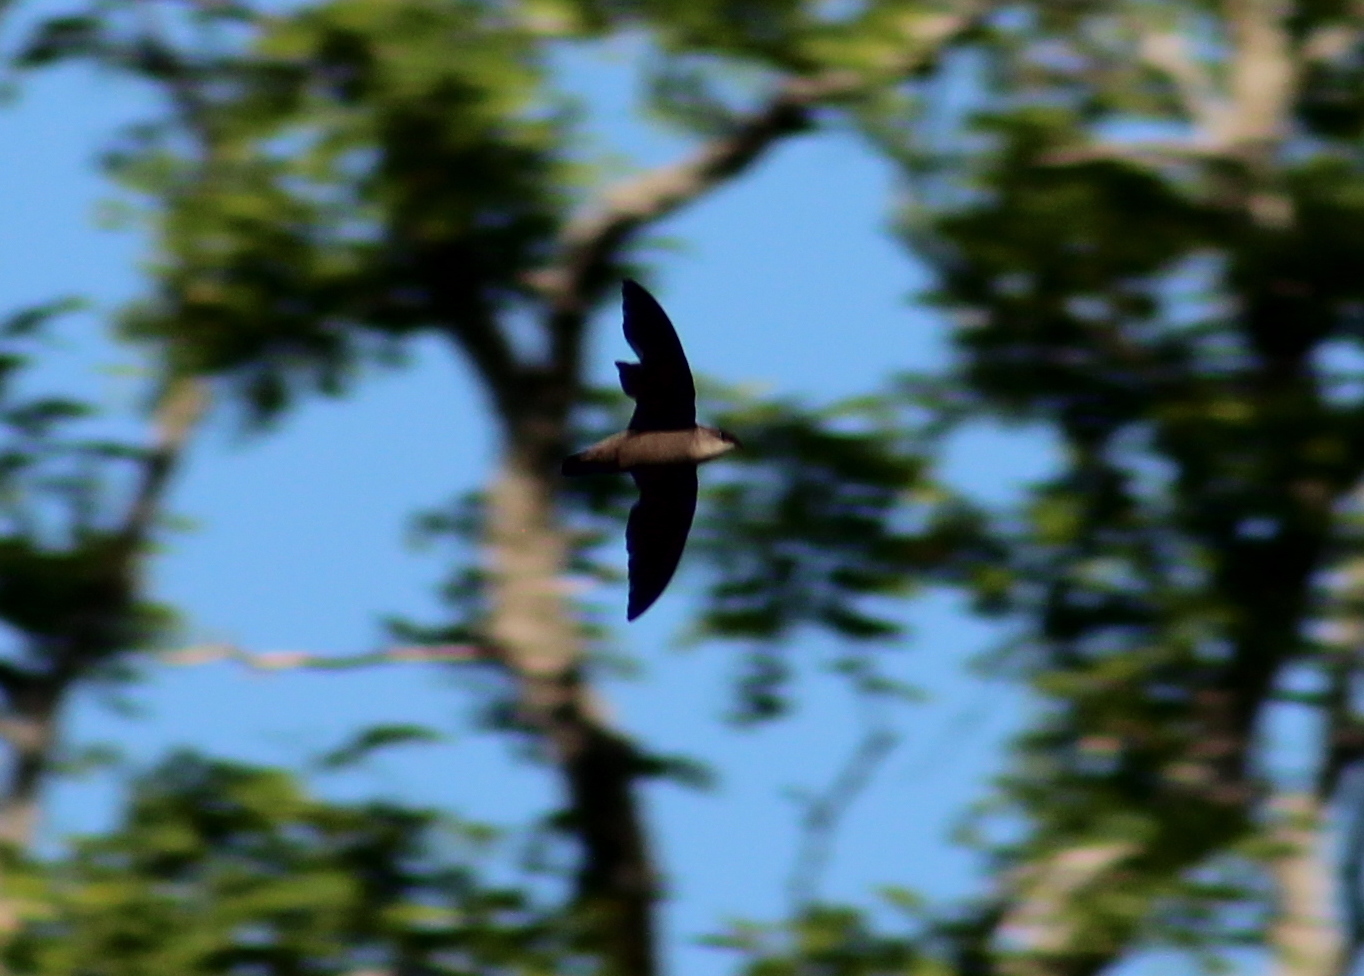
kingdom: Animalia
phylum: Chordata
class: Aves
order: Apodiformes
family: Apodidae
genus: Chaetura
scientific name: Chaetura pelagica
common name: Chimney swift
